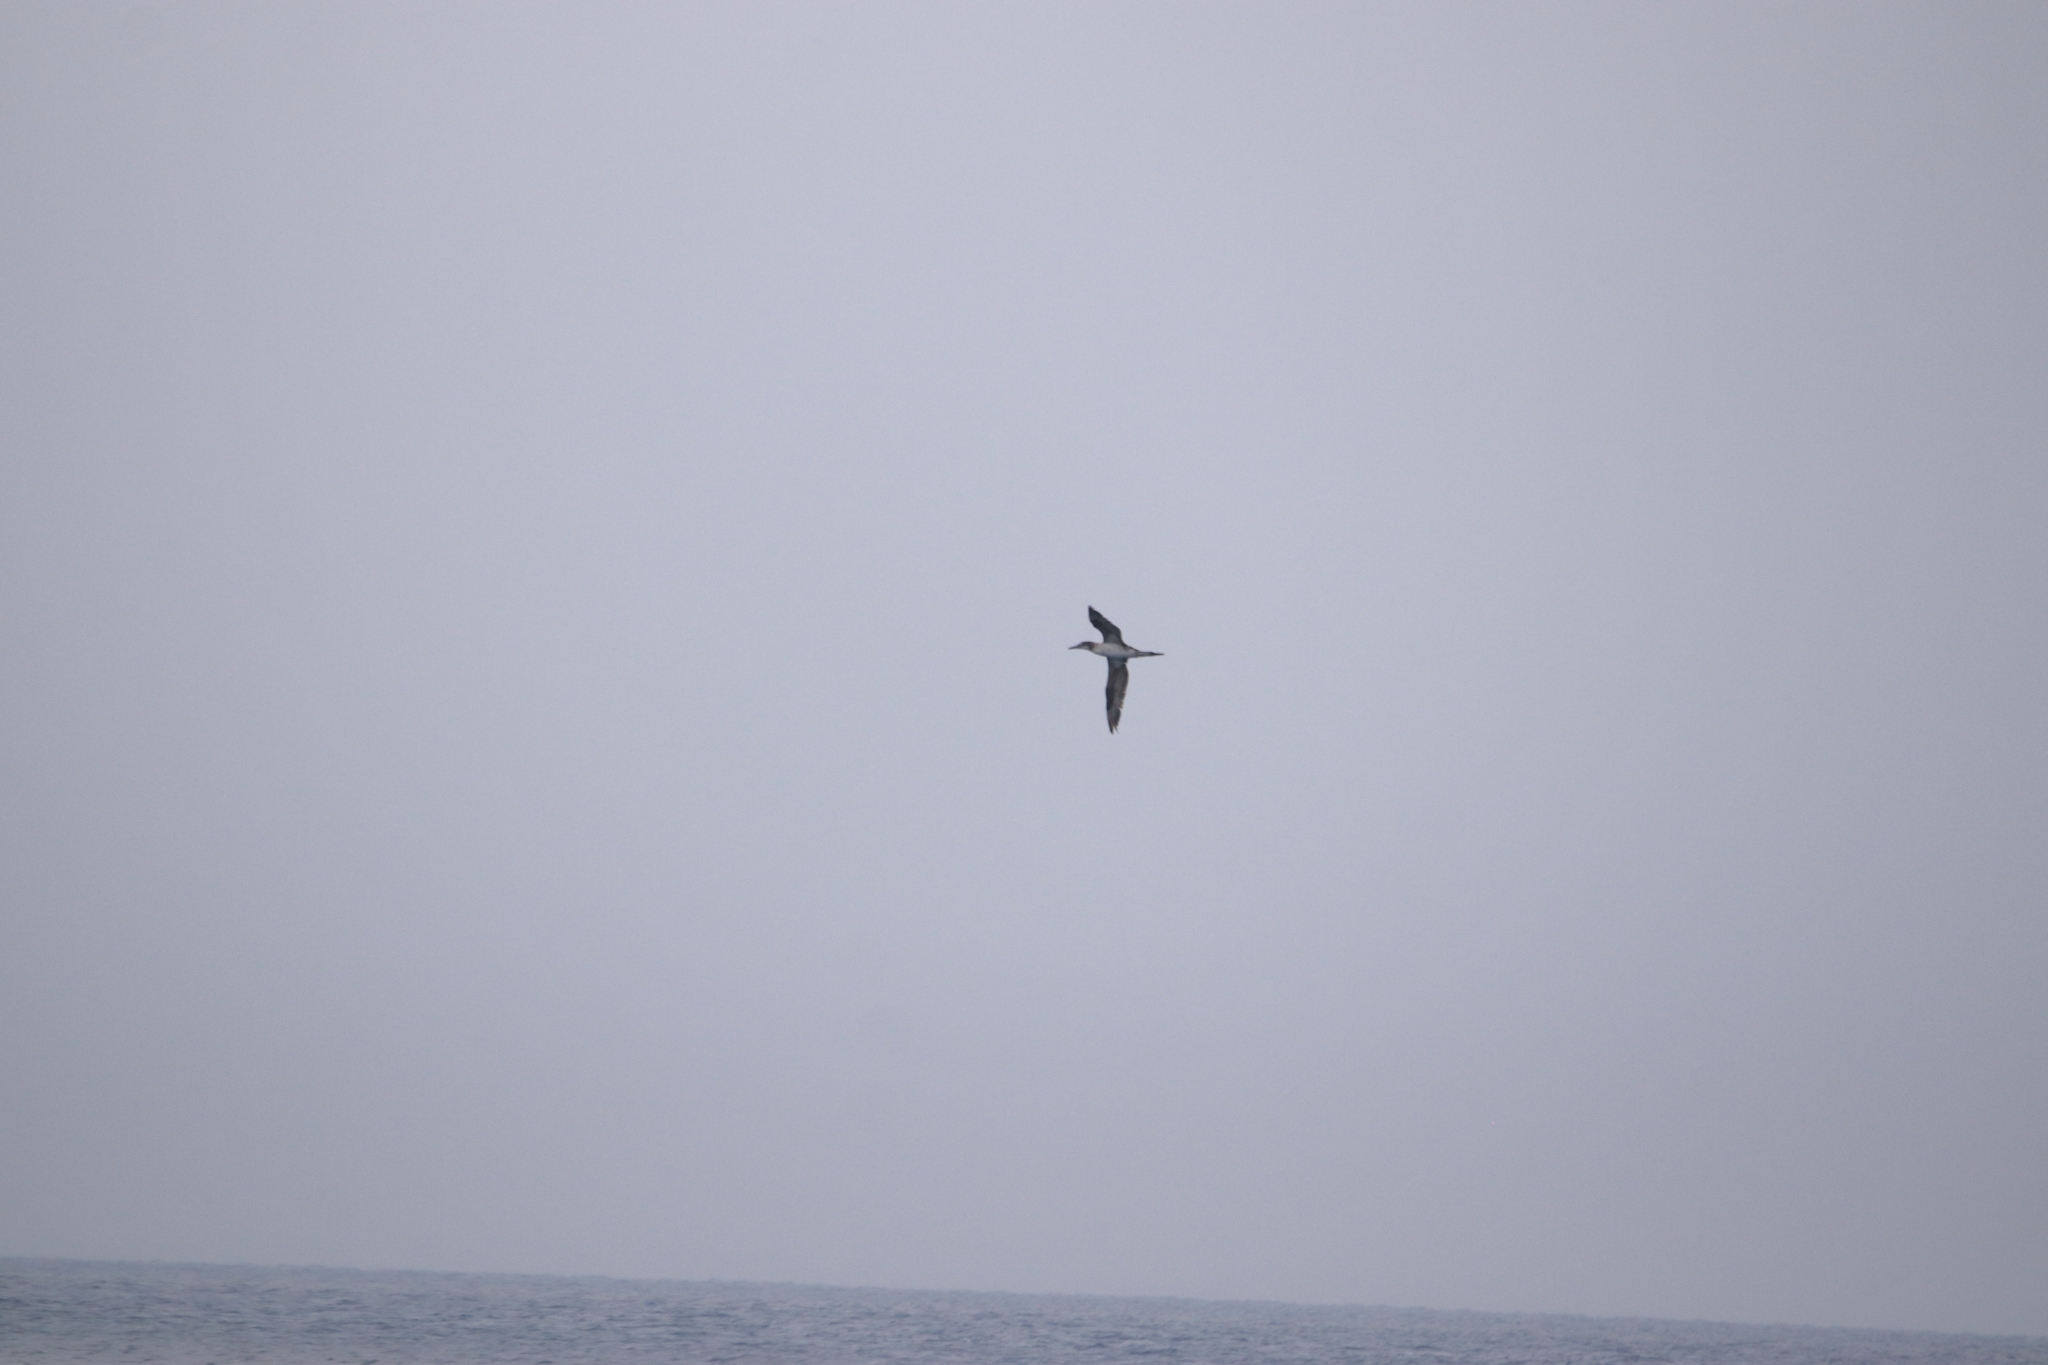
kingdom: Animalia
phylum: Chordata
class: Aves
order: Suliformes
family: Sulidae
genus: Morus
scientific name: Morus bassanus
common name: Northern gannet
